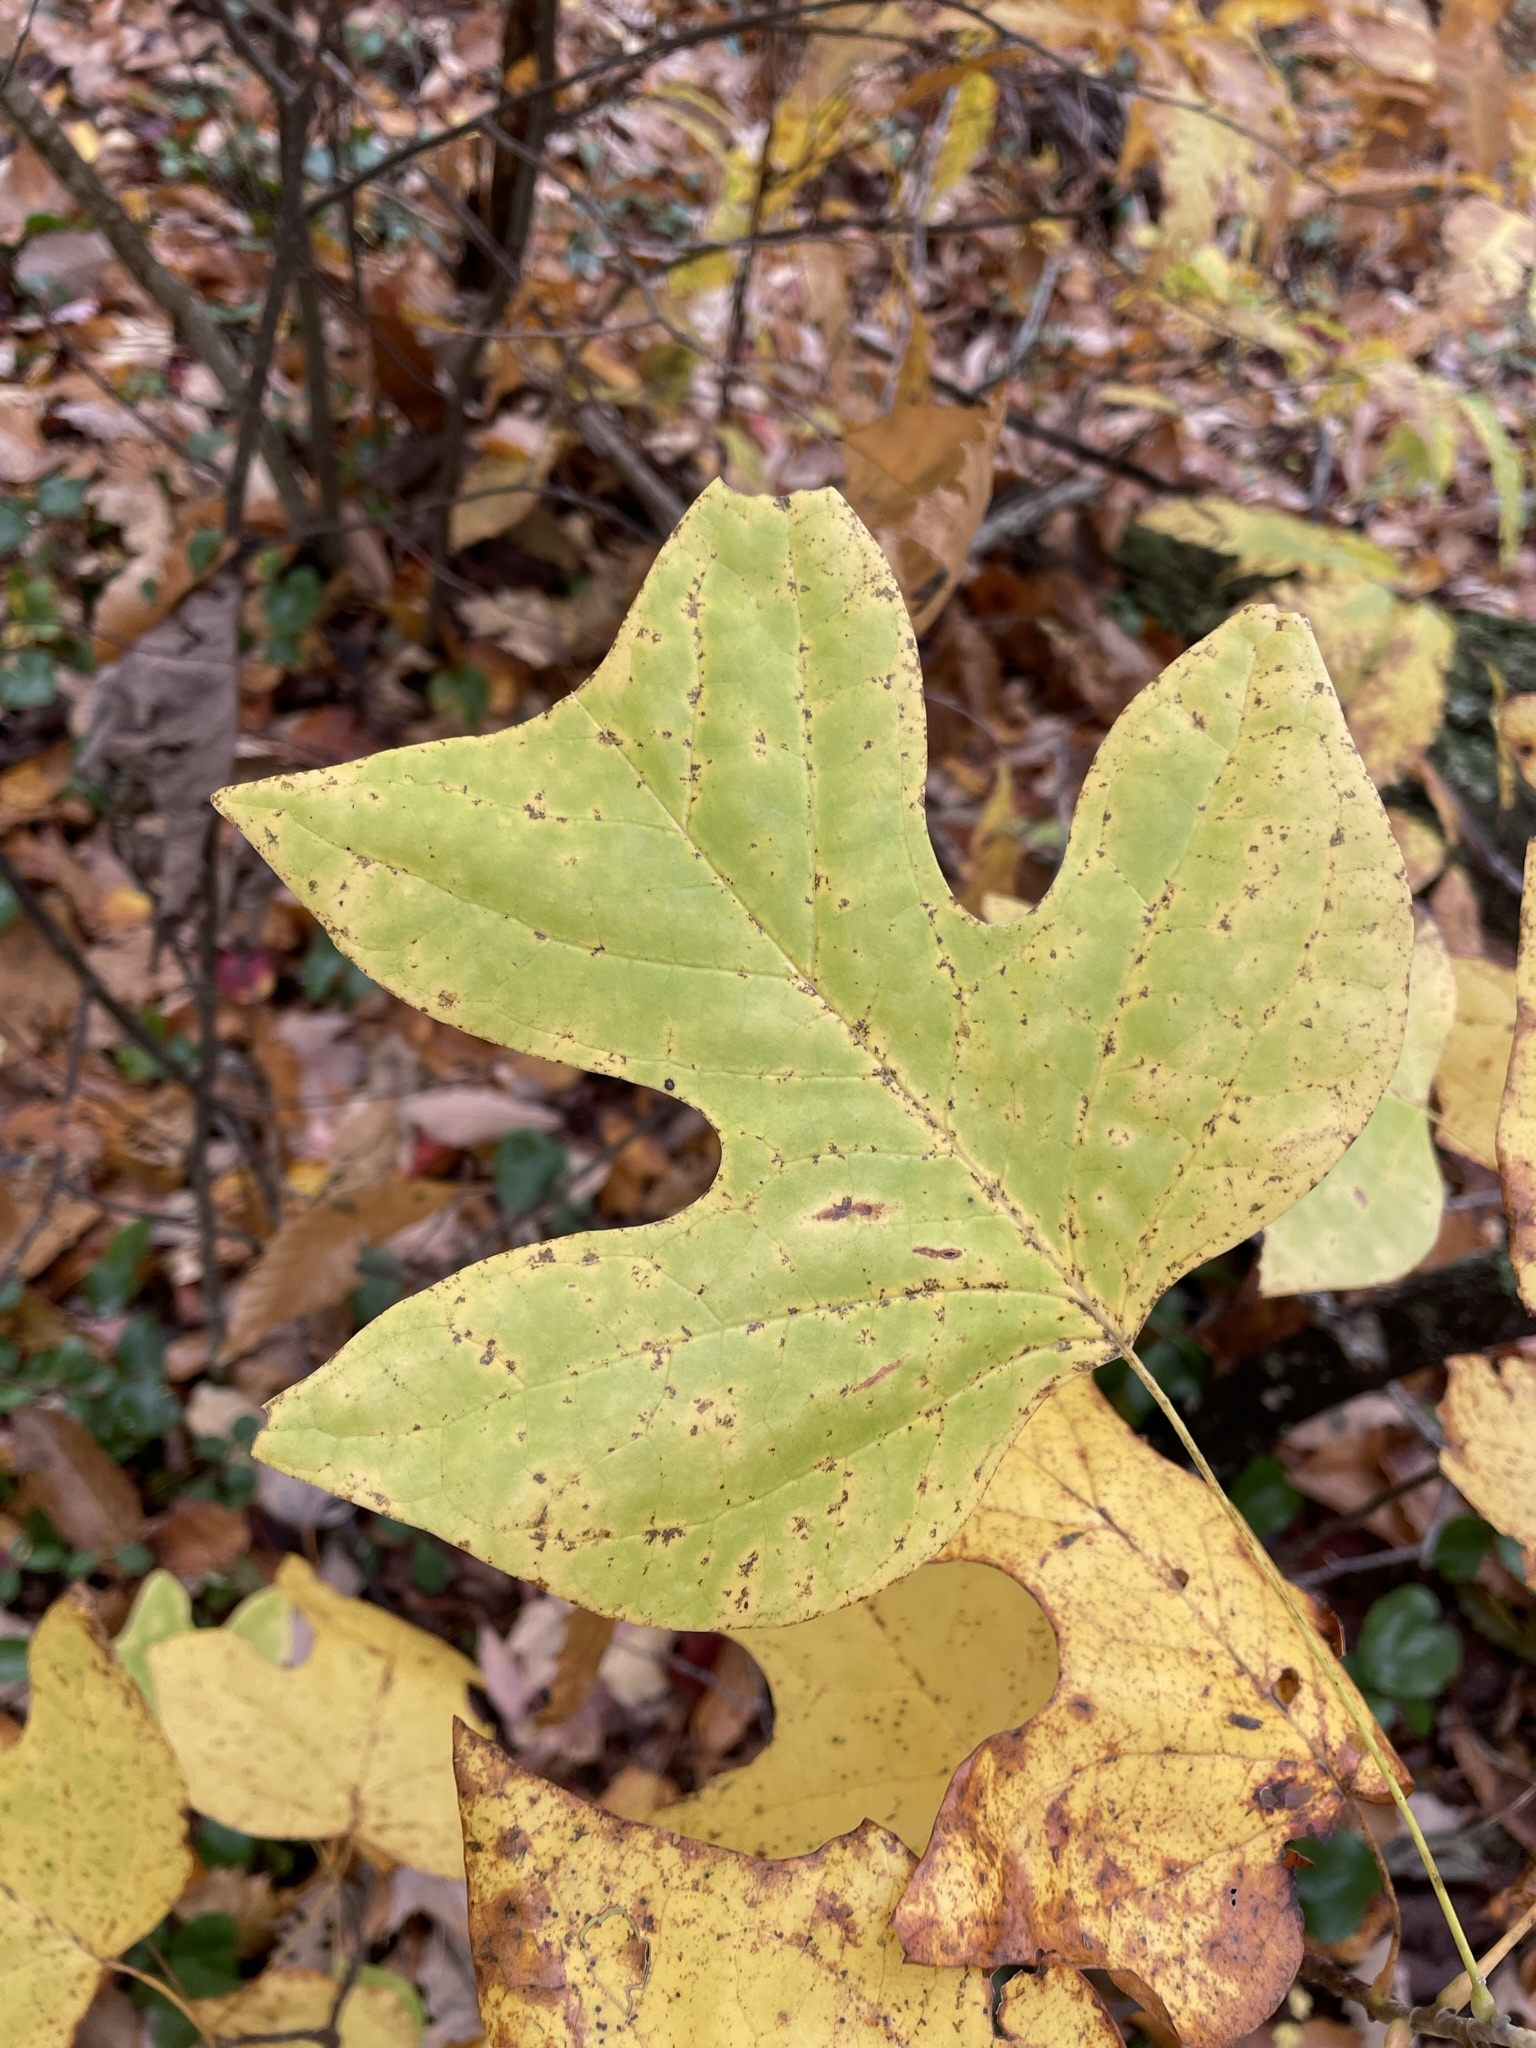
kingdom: Plantae
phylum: Tracheophyta
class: Magnoliopsida
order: Magnoliales
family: Magnoliaceae
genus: Liriodendron
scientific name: Liriodendron tulipifera
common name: Tulip tree
